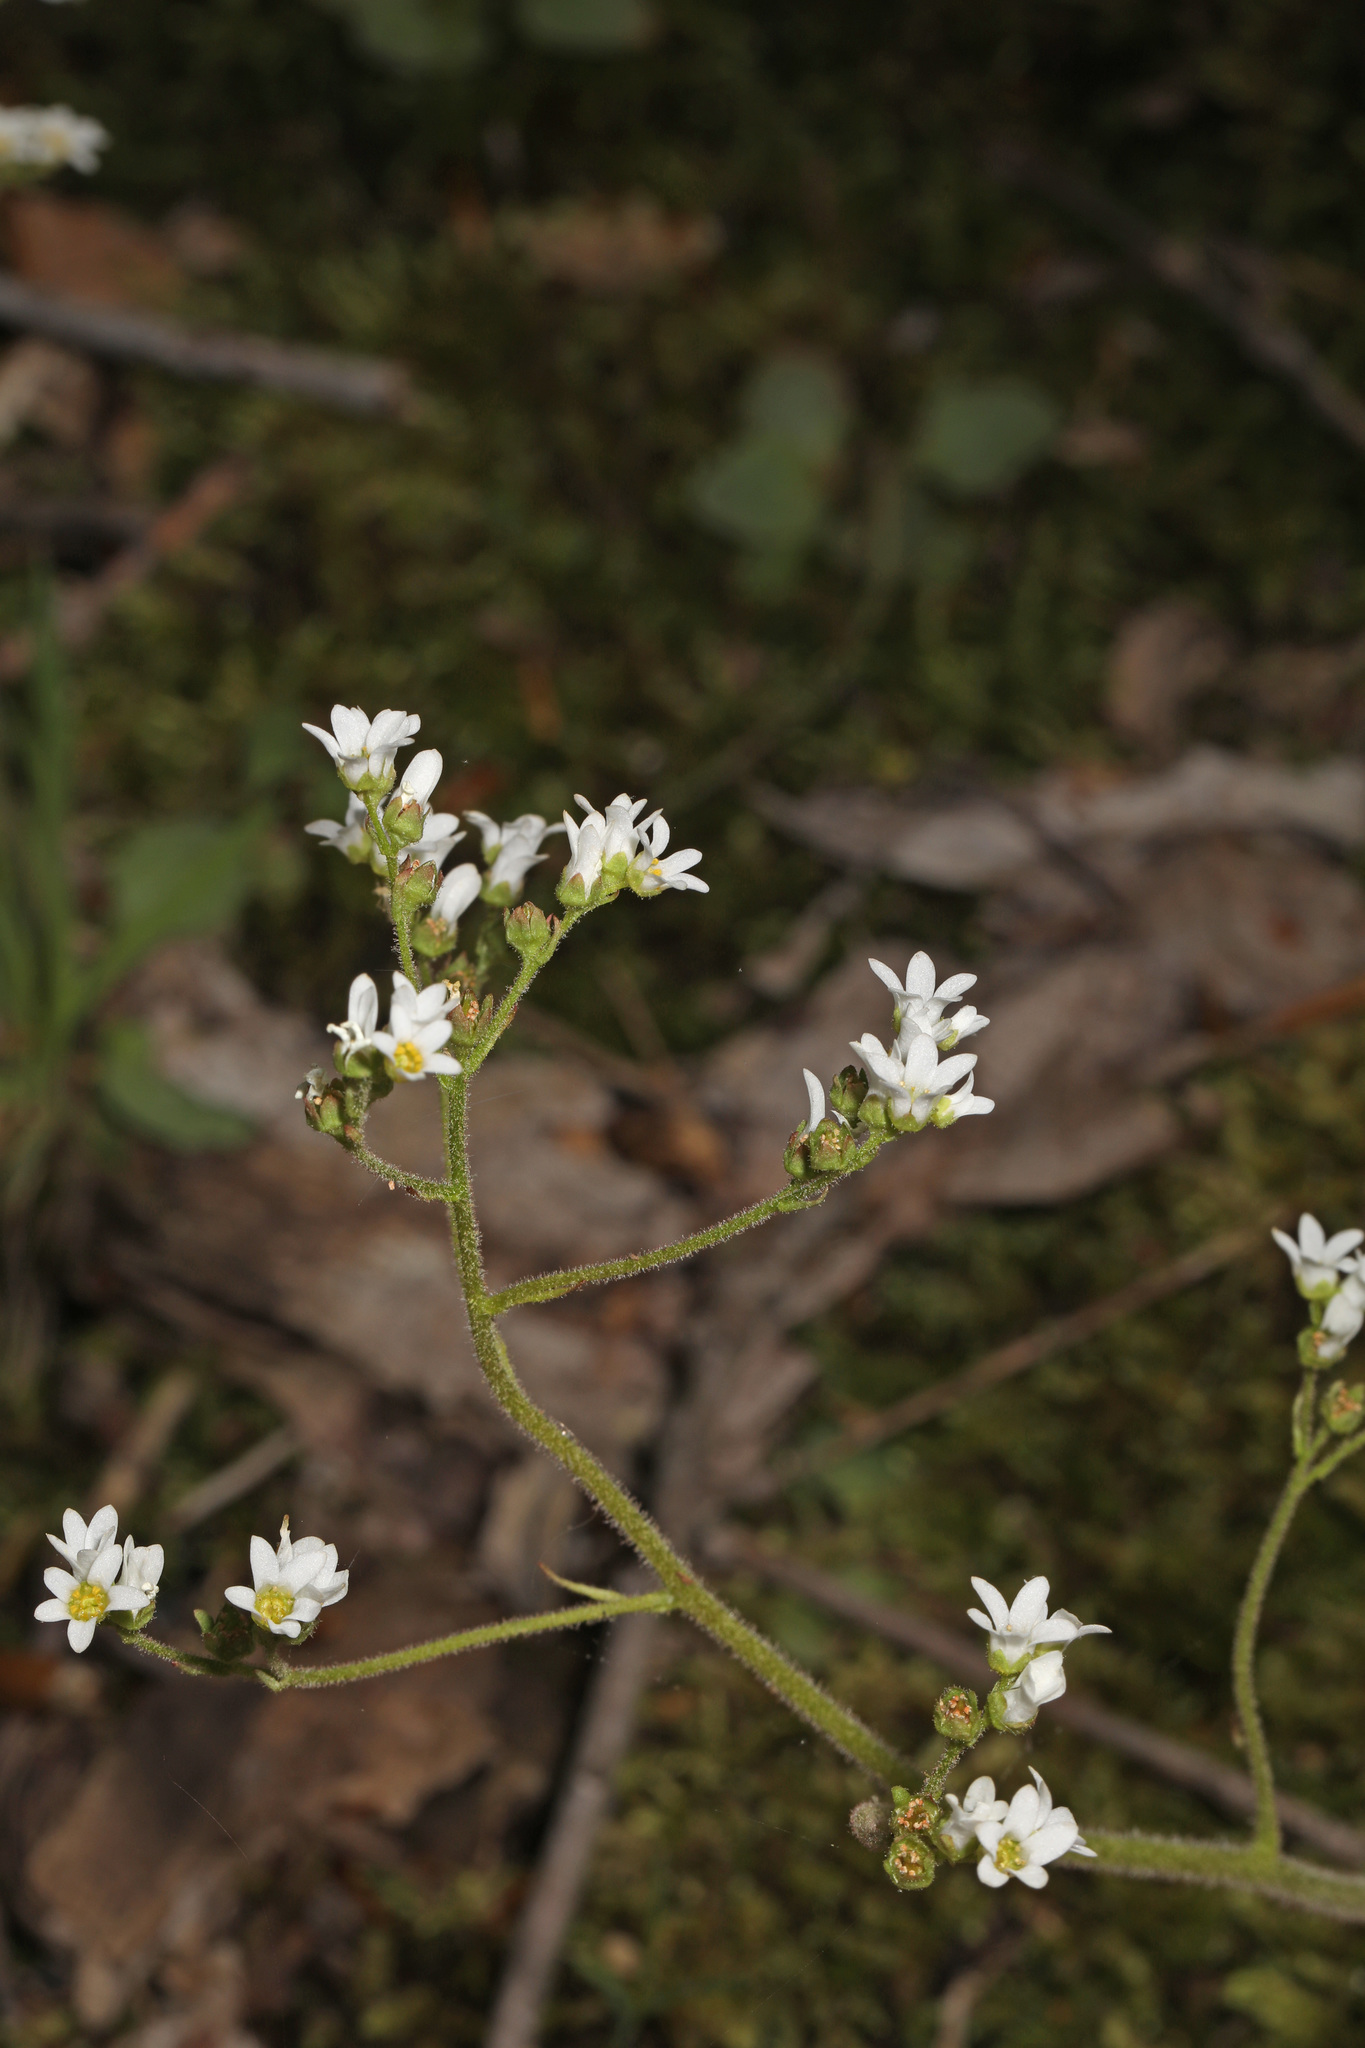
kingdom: Plantae
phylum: Tracheophyta
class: Magnoliopsida
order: Saxifragales
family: Saxifragaceae
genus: Micranthes
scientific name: Micranthes virginiensis
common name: Early saxifrage
